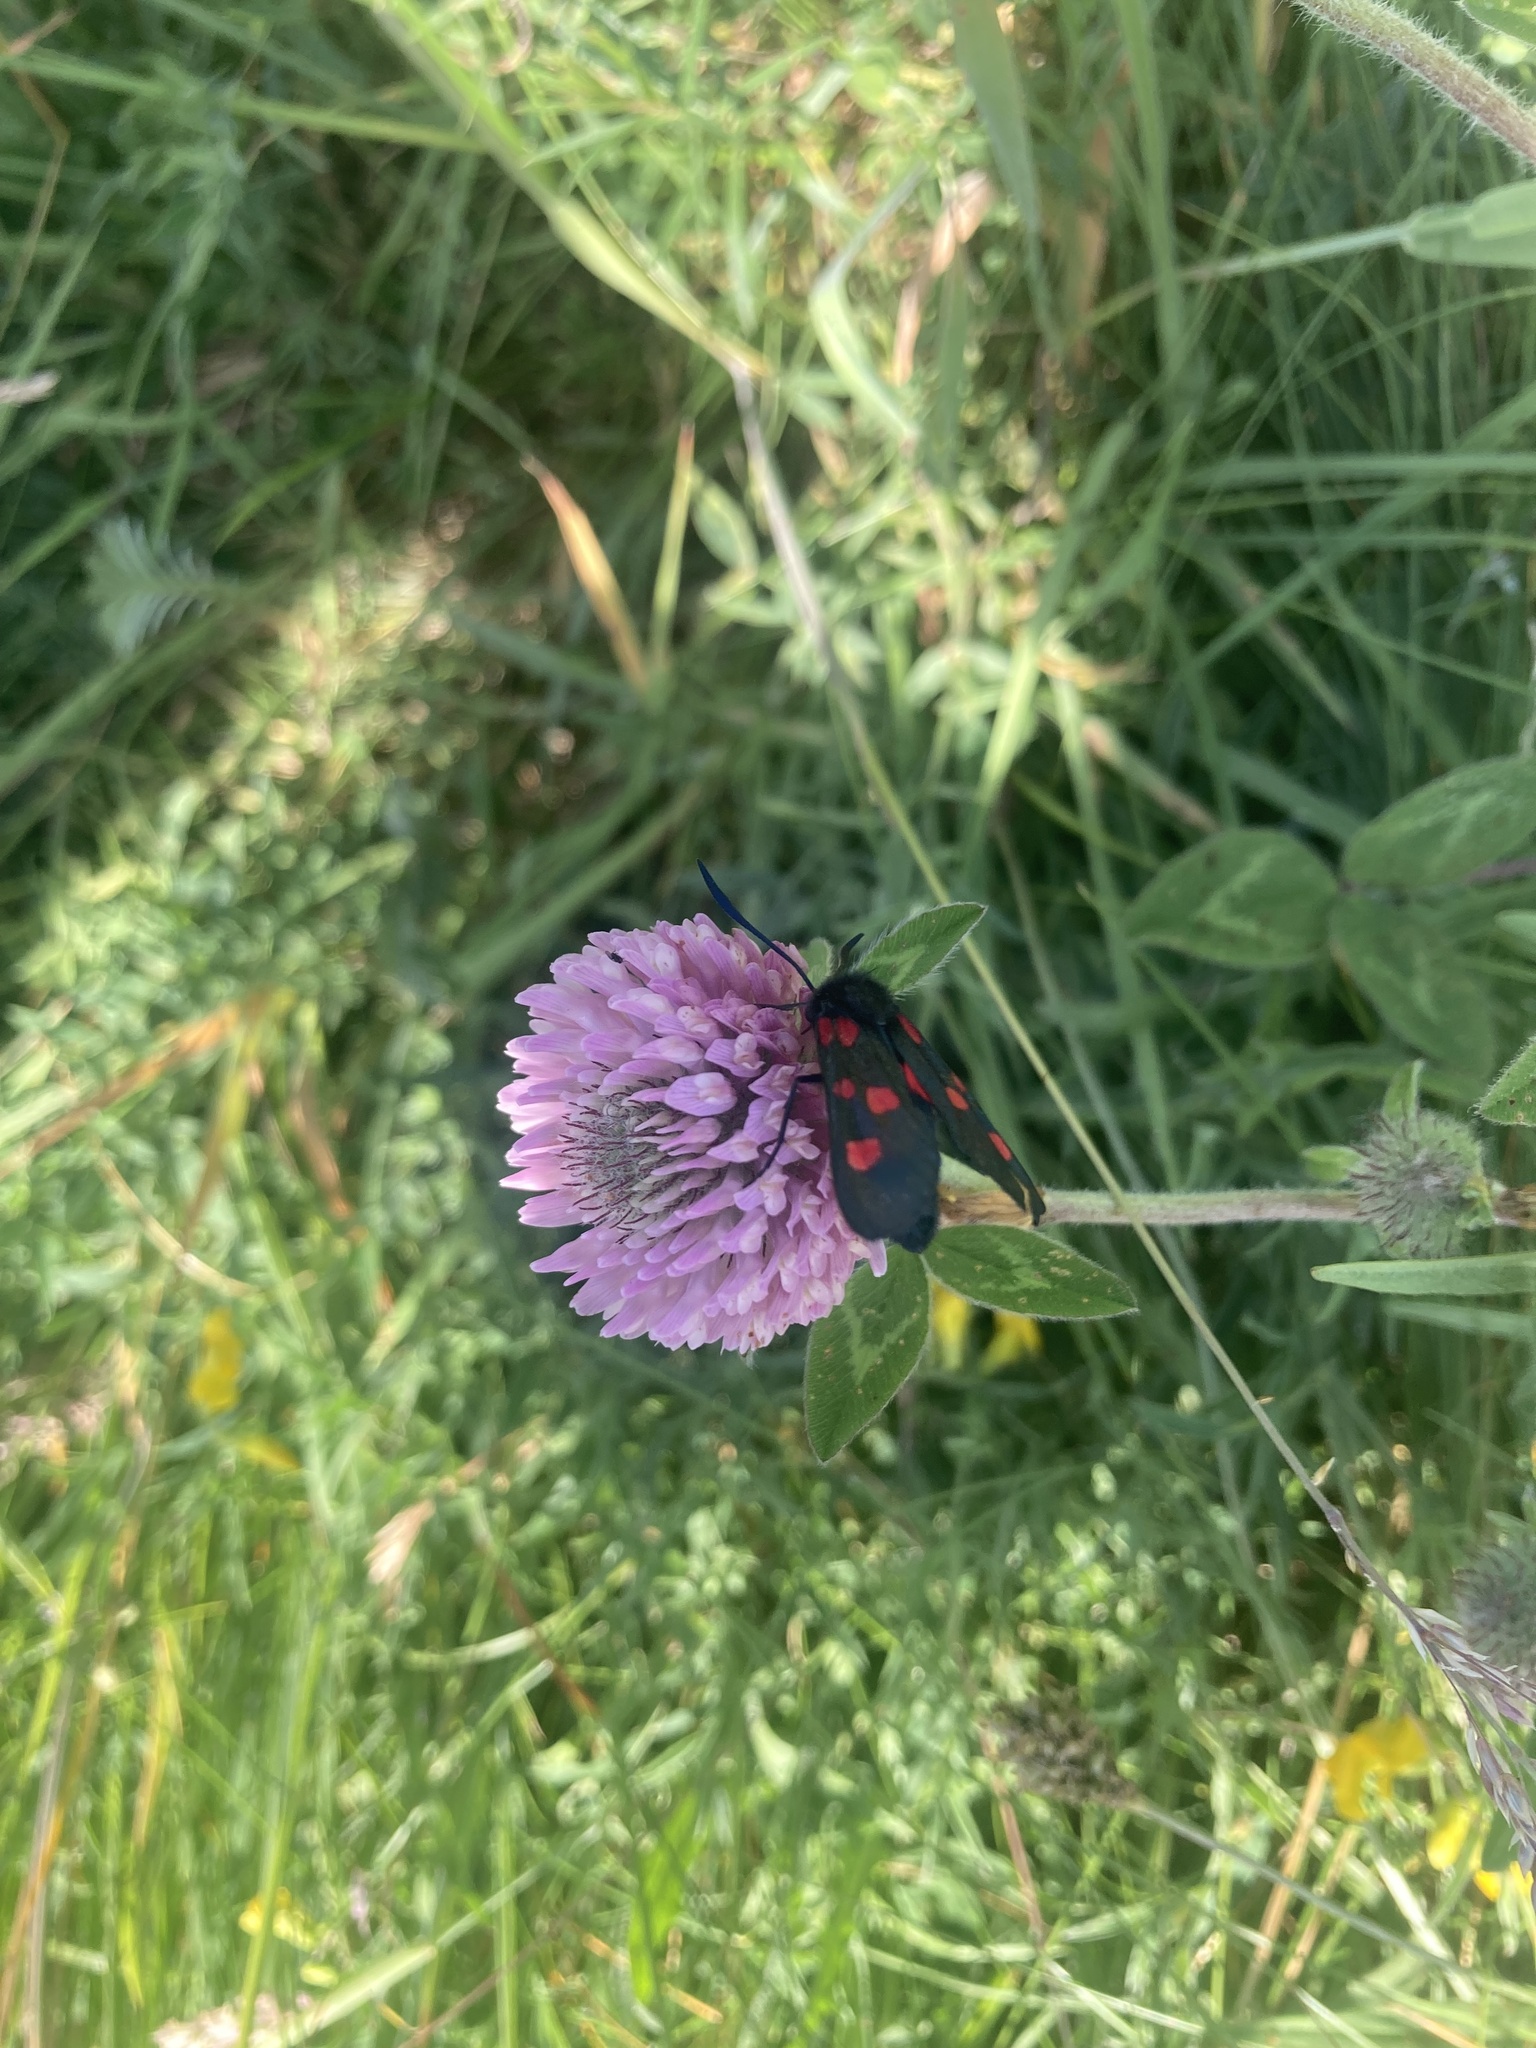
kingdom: Animalia
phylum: Arthropoda
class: Insecta
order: Lepidoptera
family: Zygaenidae
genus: Zygaena
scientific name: Zygaena lonicerae
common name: Narrow-bordered five-spot burnet
